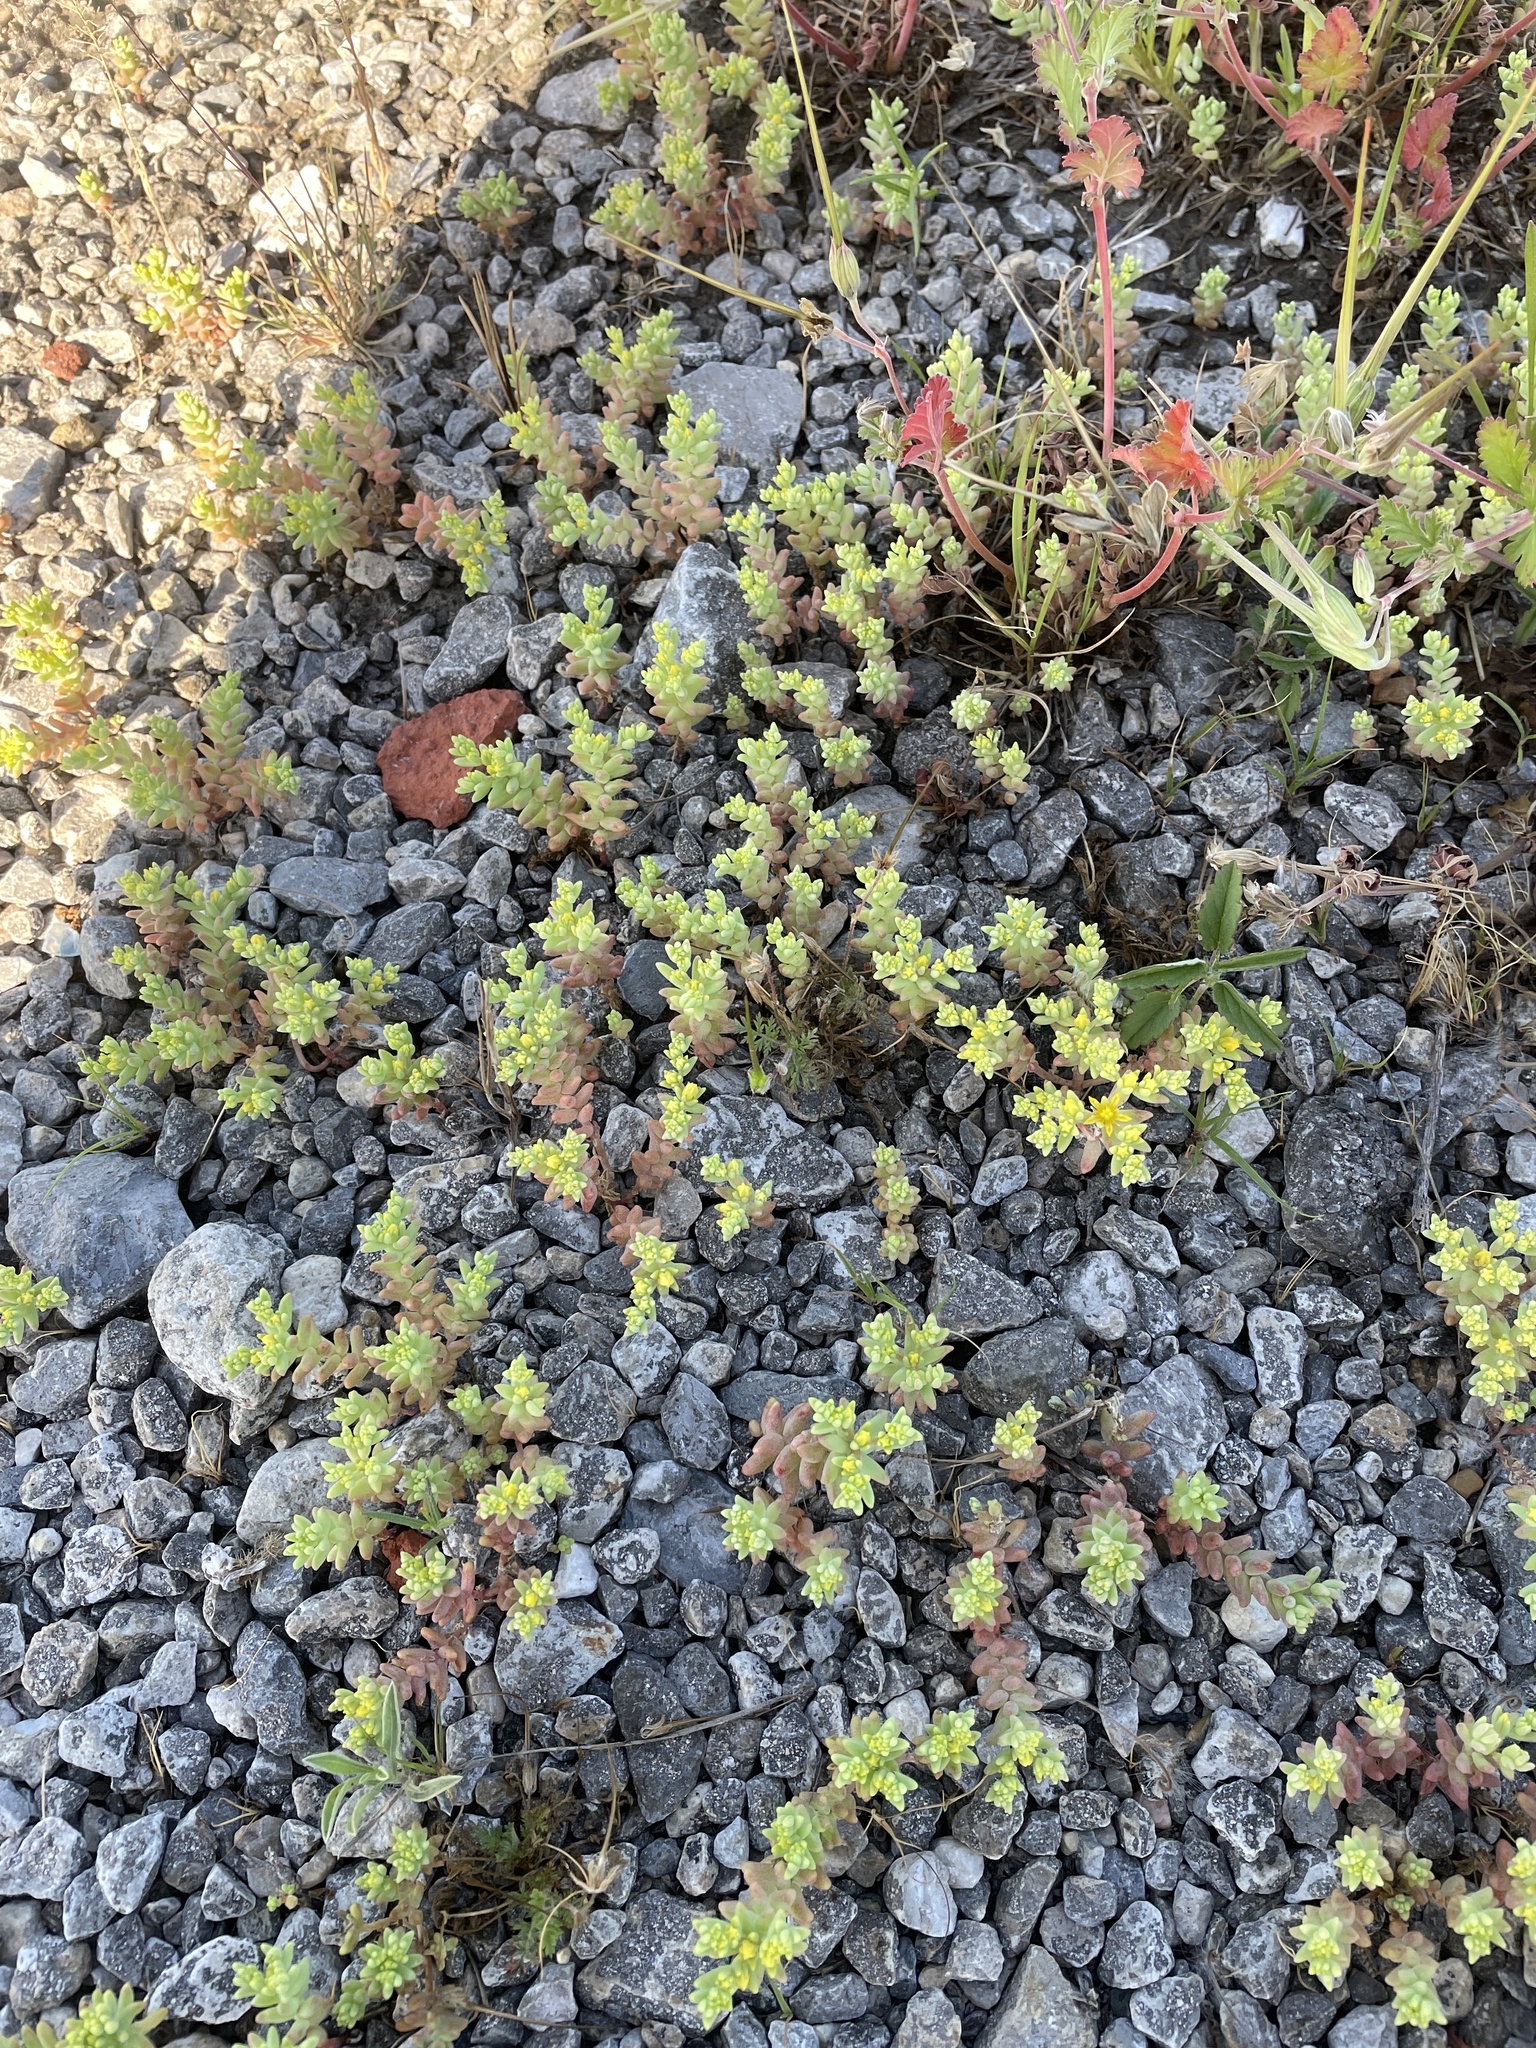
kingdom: Plantae
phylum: Tracheophyta
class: Magnoliopsida
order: Saxifragales
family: Crassulaceae
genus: Sedum
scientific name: Sedum nuttallii
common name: Yellow stonecrop
